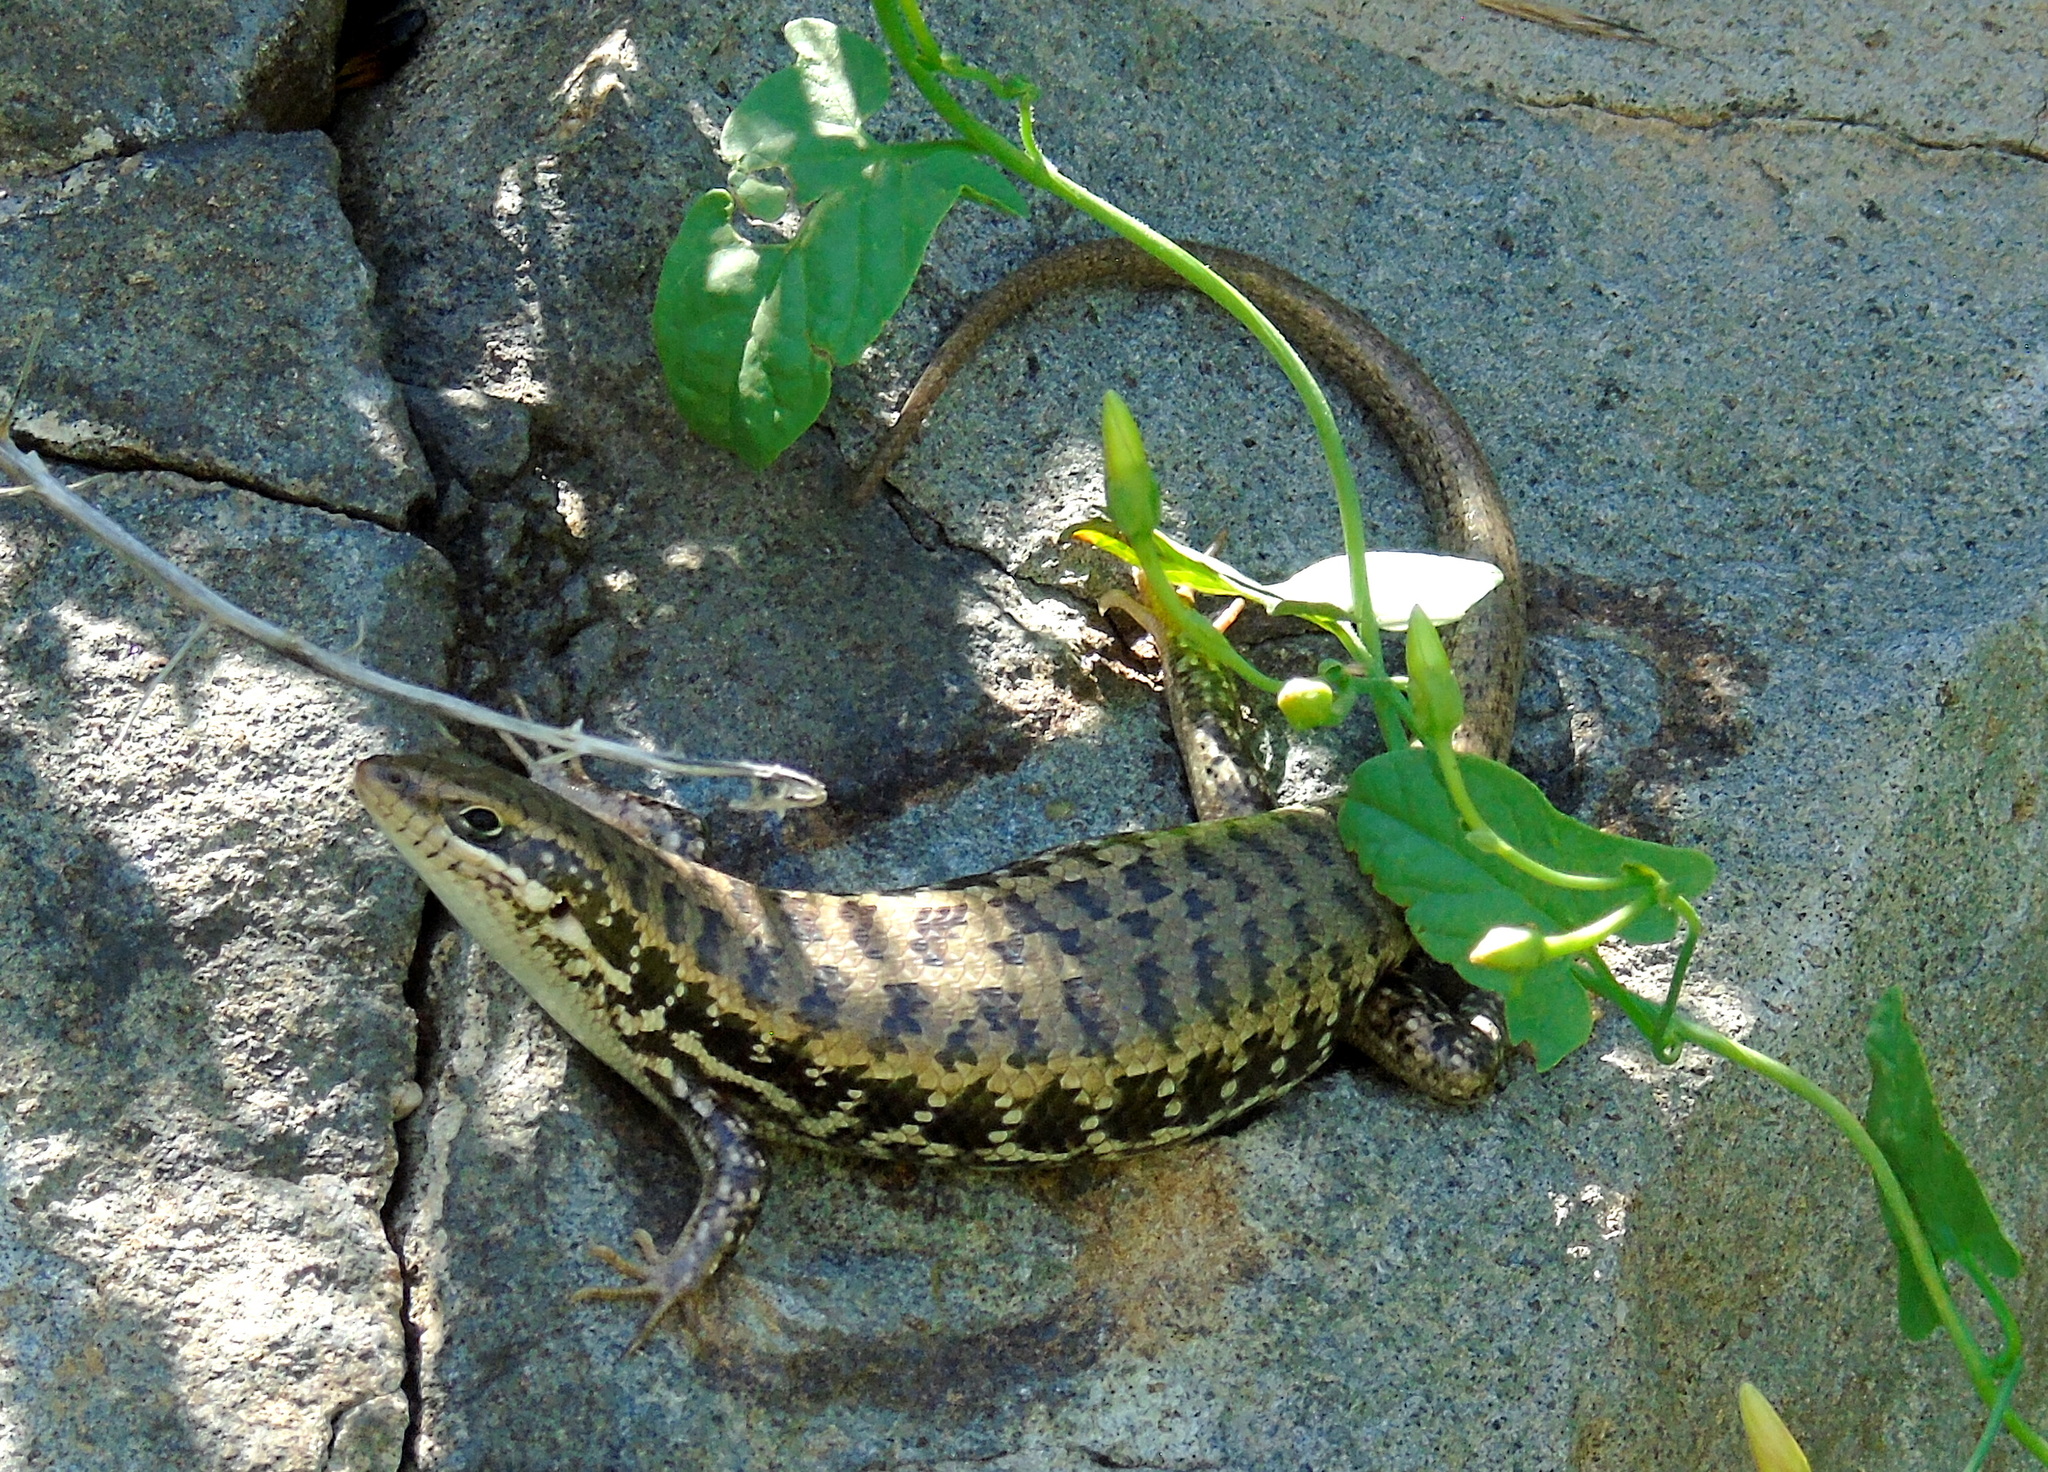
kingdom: Animalia
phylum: Chordata
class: Squamata
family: Scincidae
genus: Heremites
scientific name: Heremites auratus
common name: Golden grass mabuya
